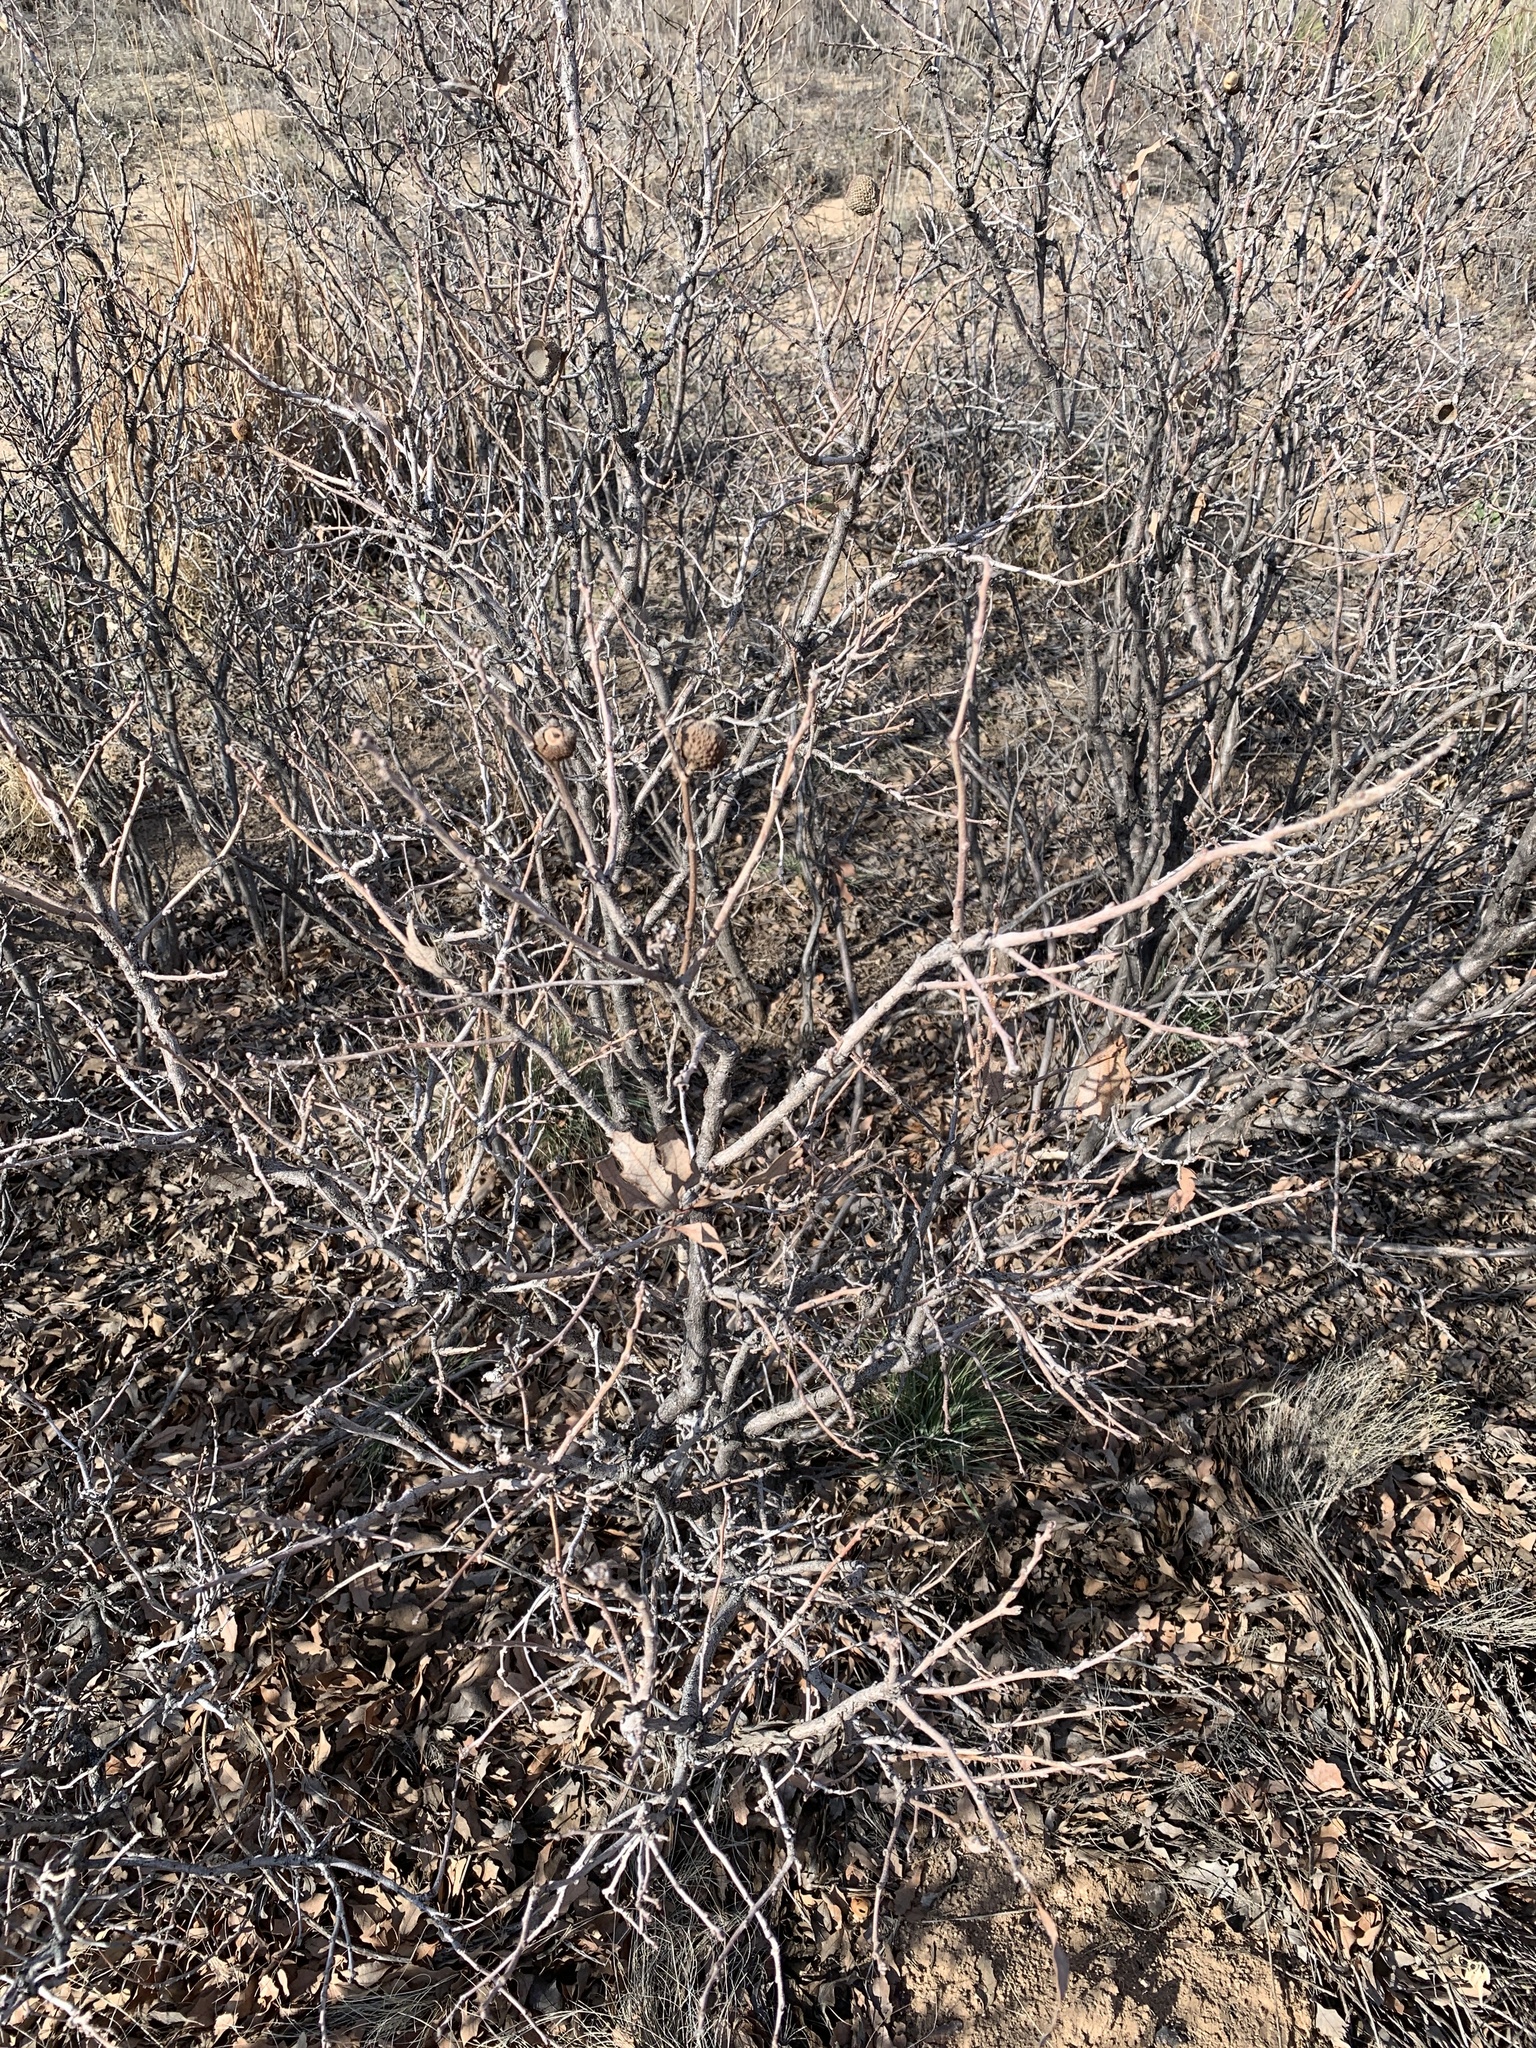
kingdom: Plantae
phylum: Tracheophyta
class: Magnoliopsida
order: Fagales
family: Fagaceae
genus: Quercus
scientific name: Quercus havardii
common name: Shinnery oak
